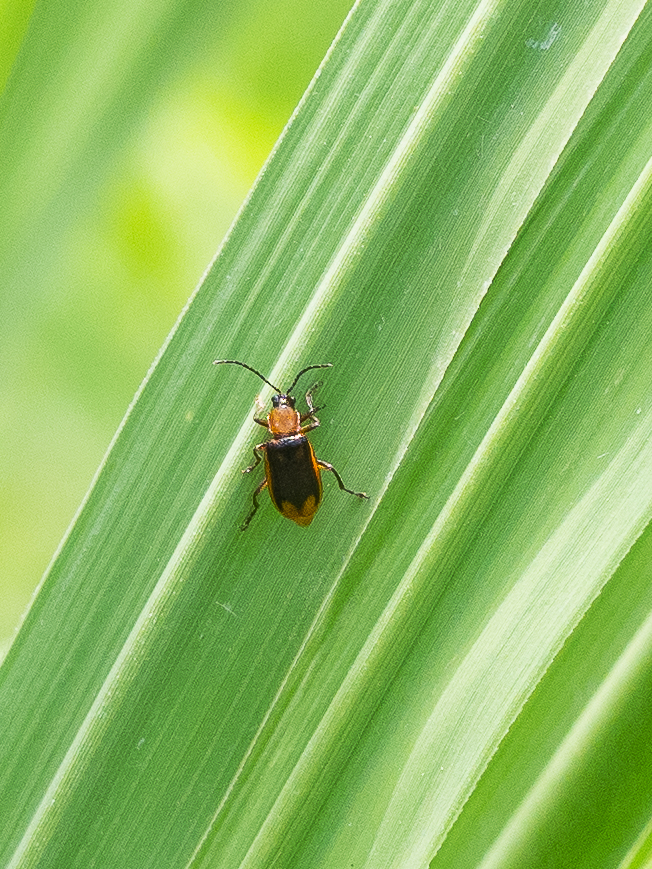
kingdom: Animalia
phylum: Arthropoda
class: Insecta
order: Coleoptera
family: Chrysomelidae
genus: Diabrotica
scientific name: Diabrotica virgifera
